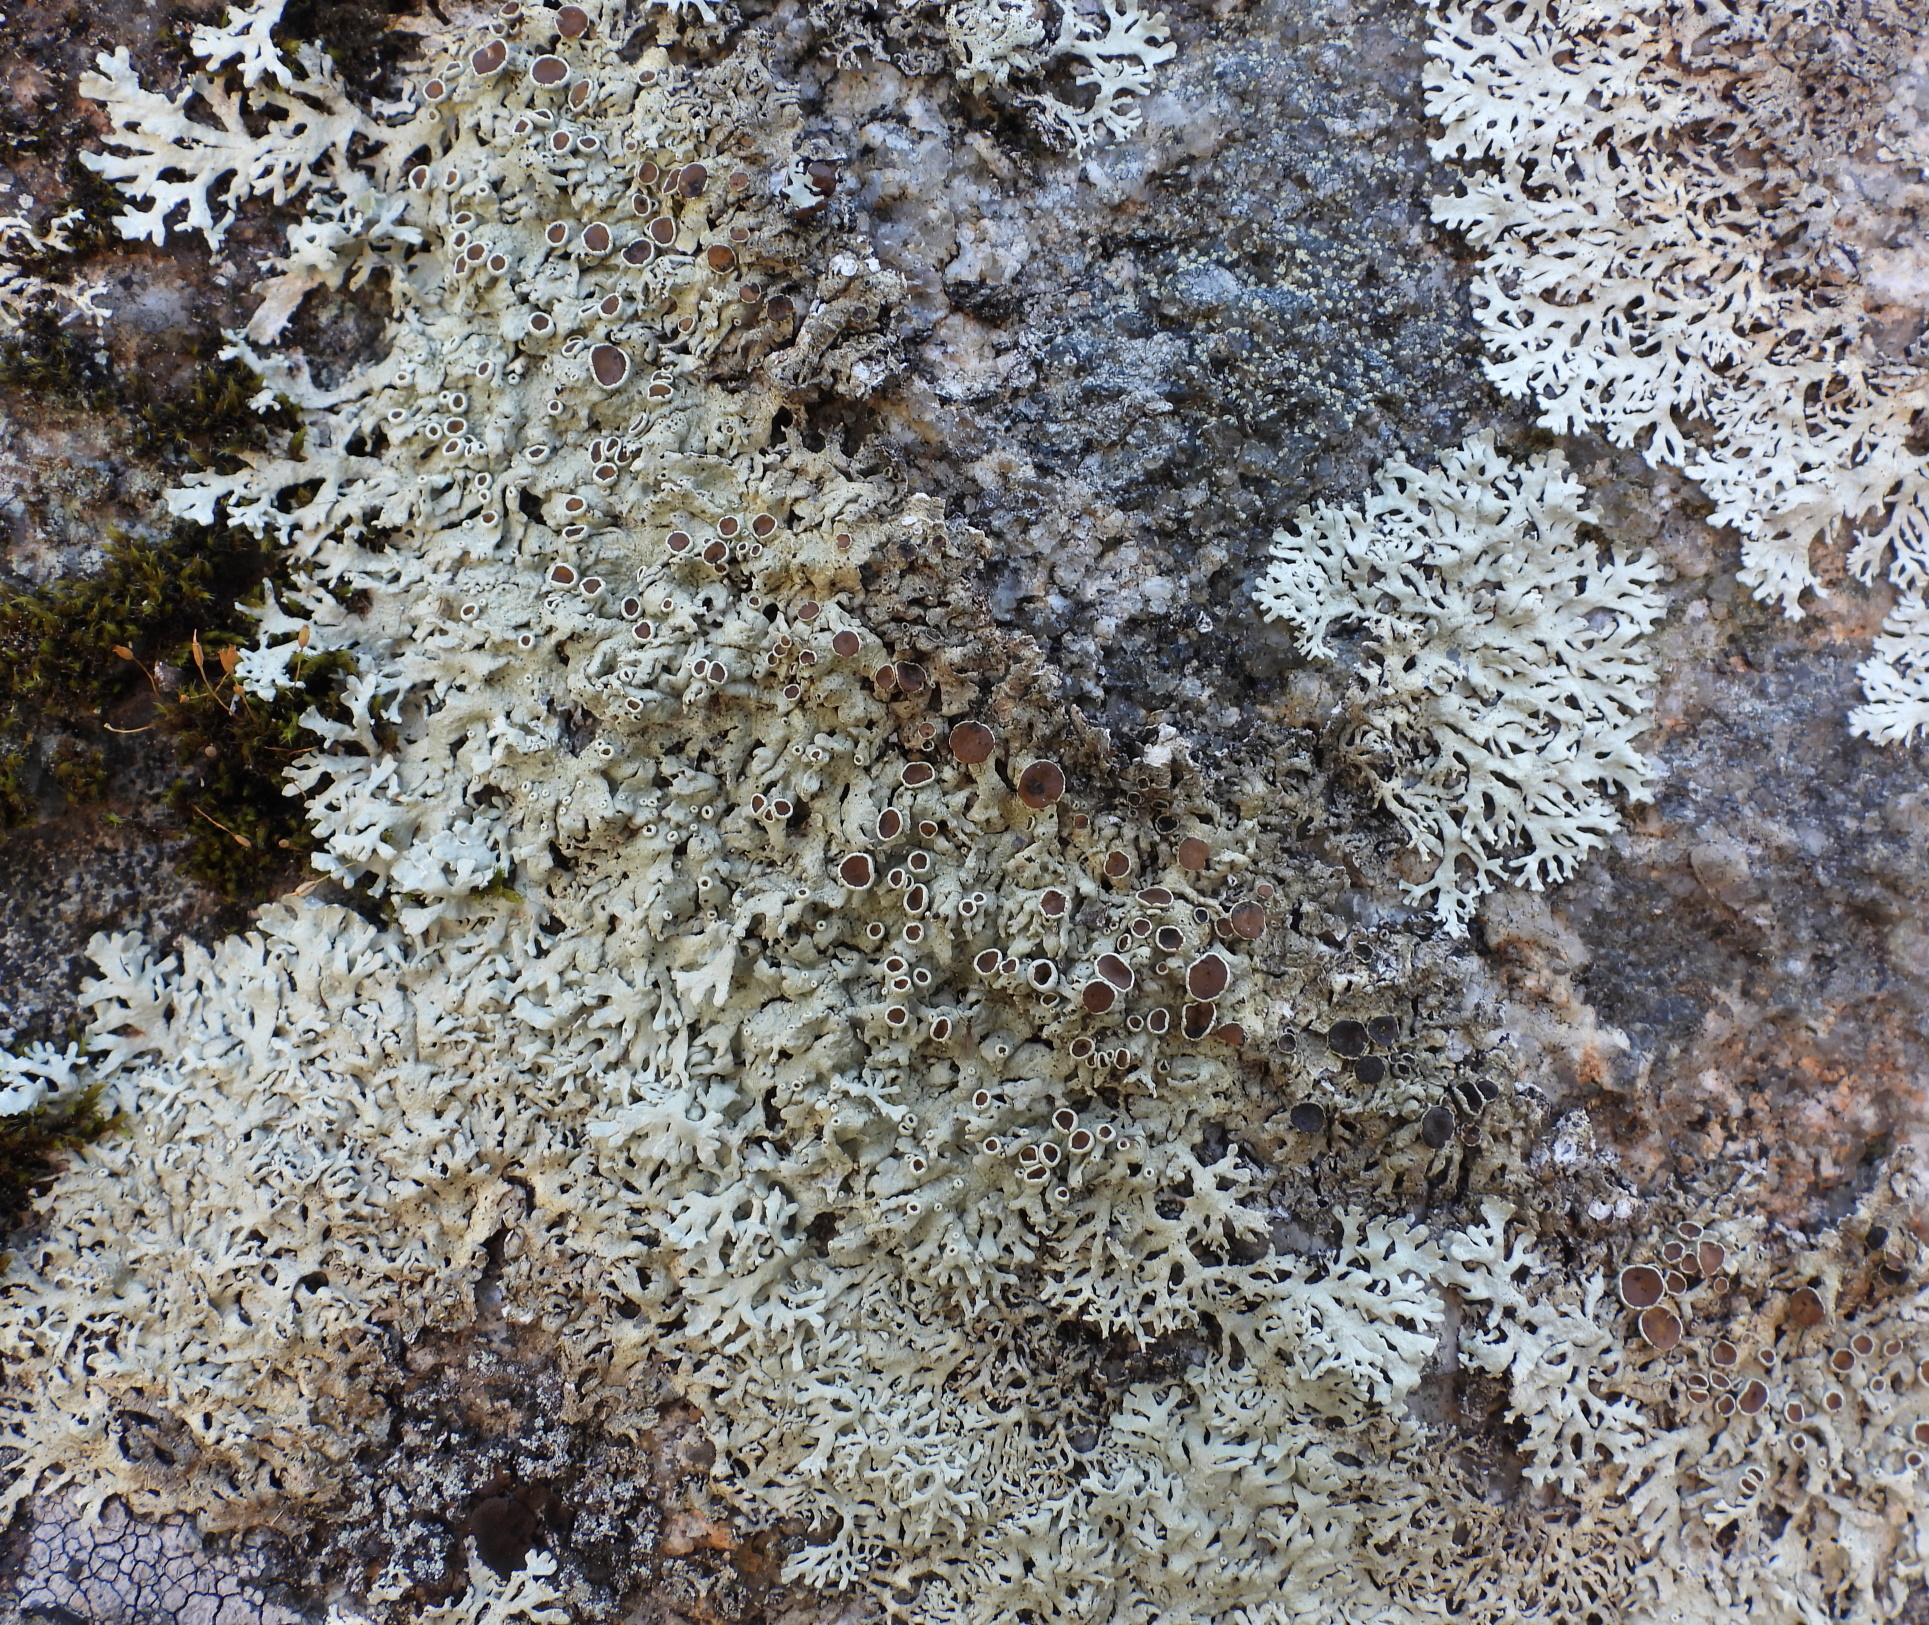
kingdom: Fungi
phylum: Ascomycota
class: Lecanoromycetes
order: Lecanorales
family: Parmeliaceae
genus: Arctoparmelia
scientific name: Arctoparmelia centrifuga
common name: Concentric ring lichen
